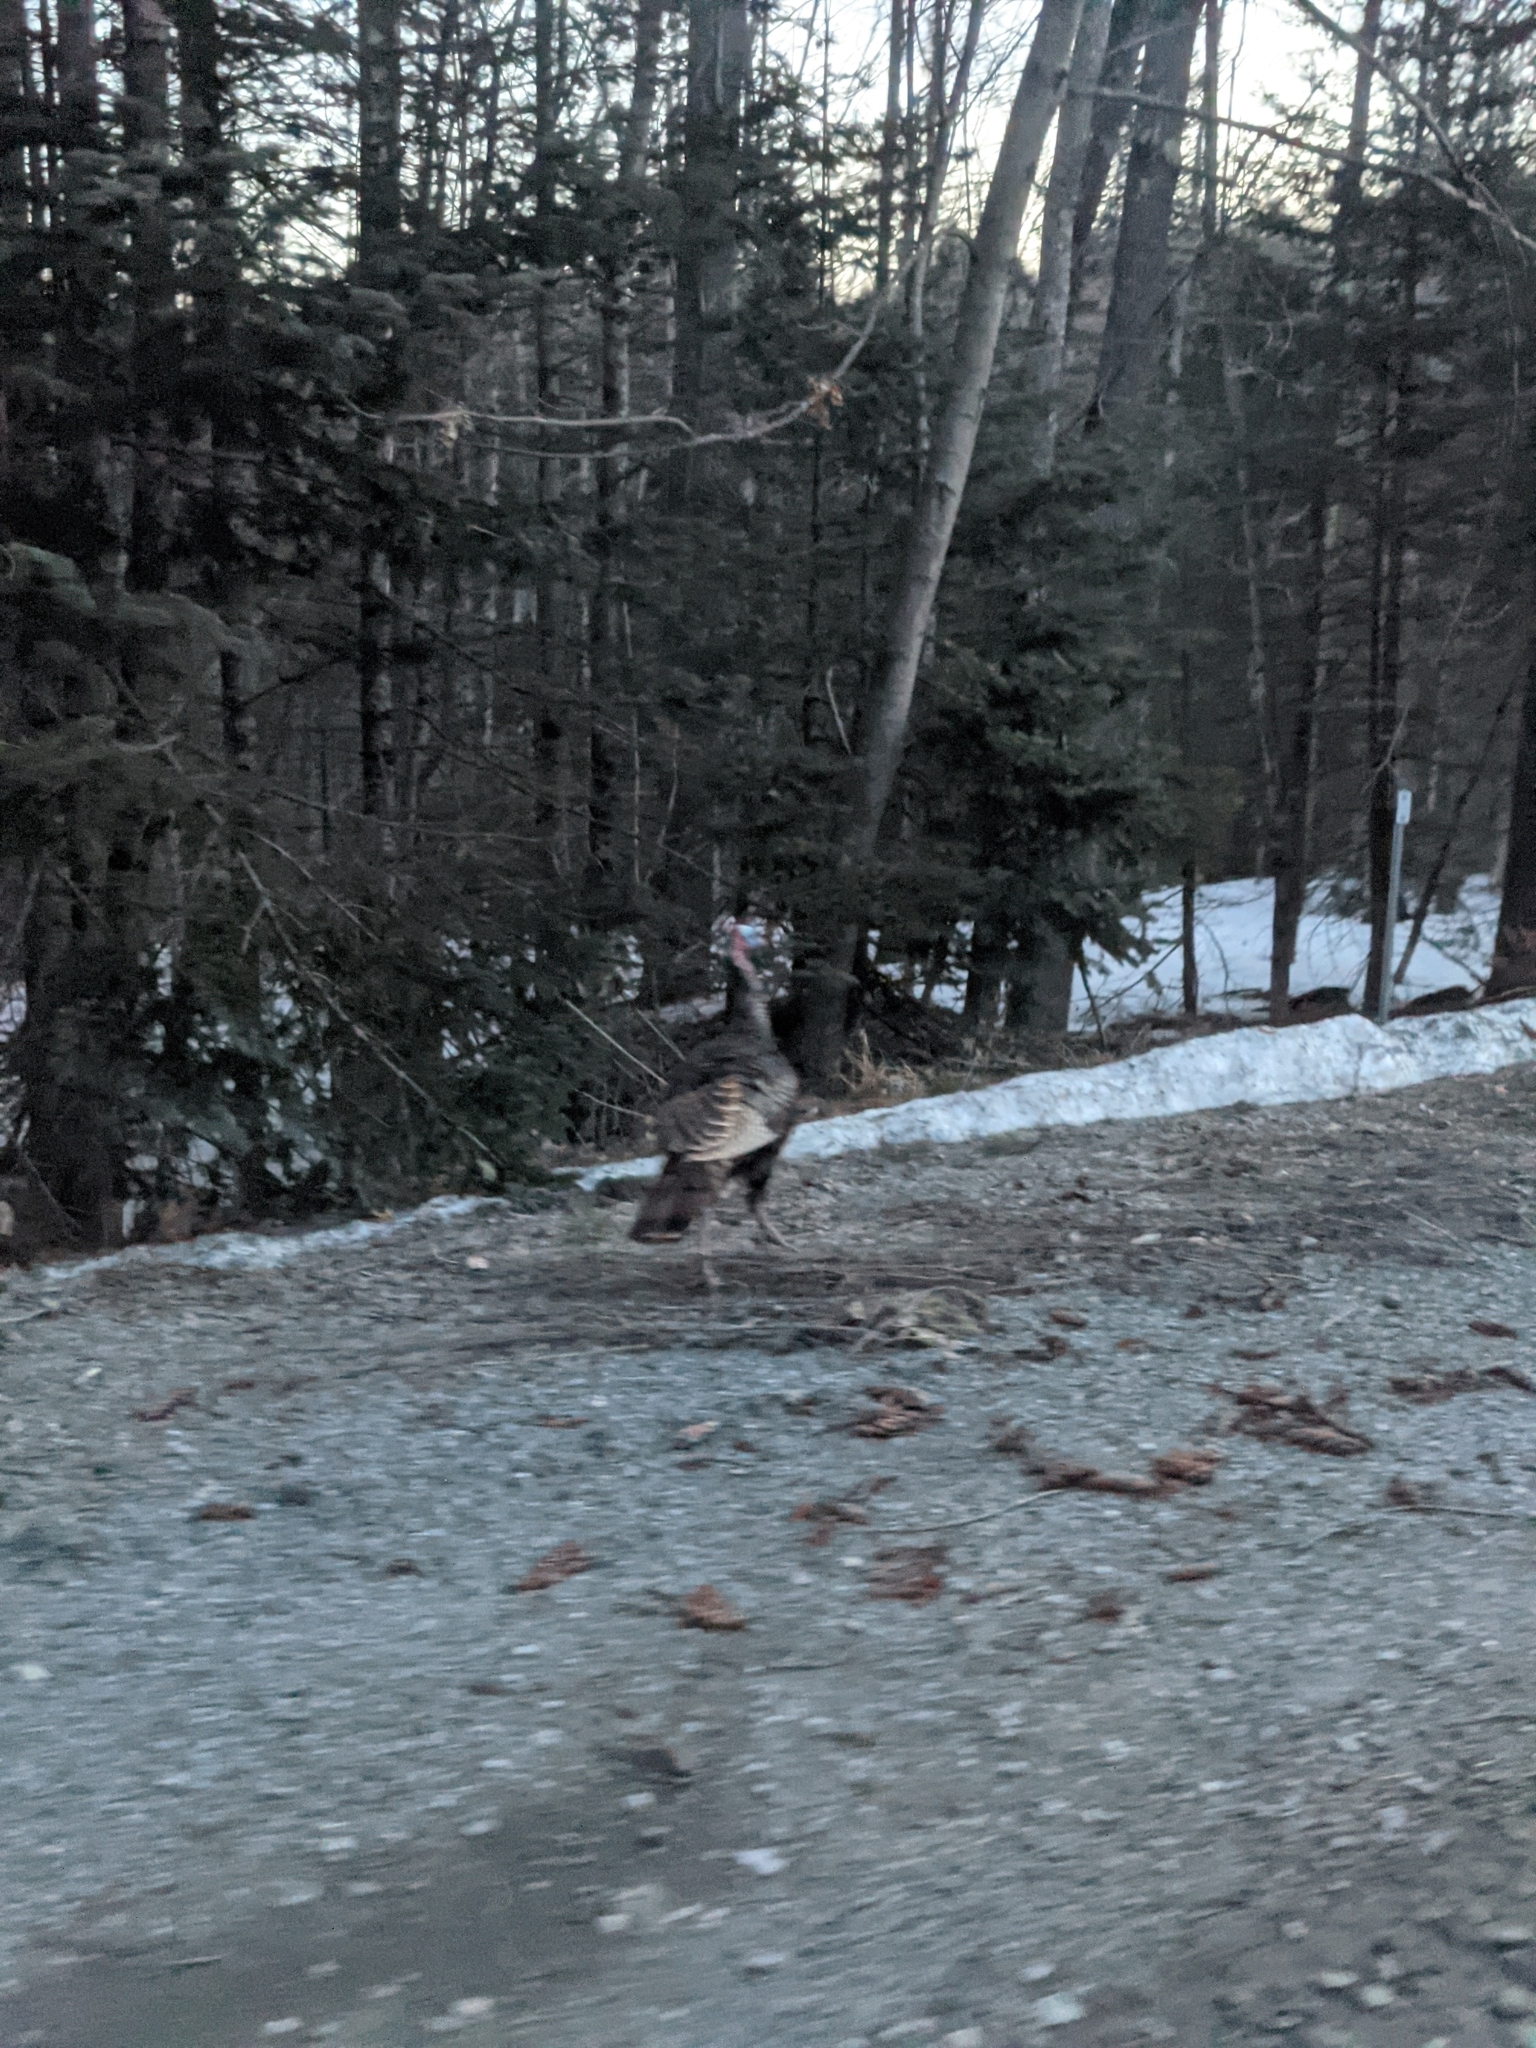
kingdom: Animalia
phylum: Chordata
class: Aves
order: Galliformes
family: Phasianidae
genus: Meleagris
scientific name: Meleagris gallopavo
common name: Wild turkey
